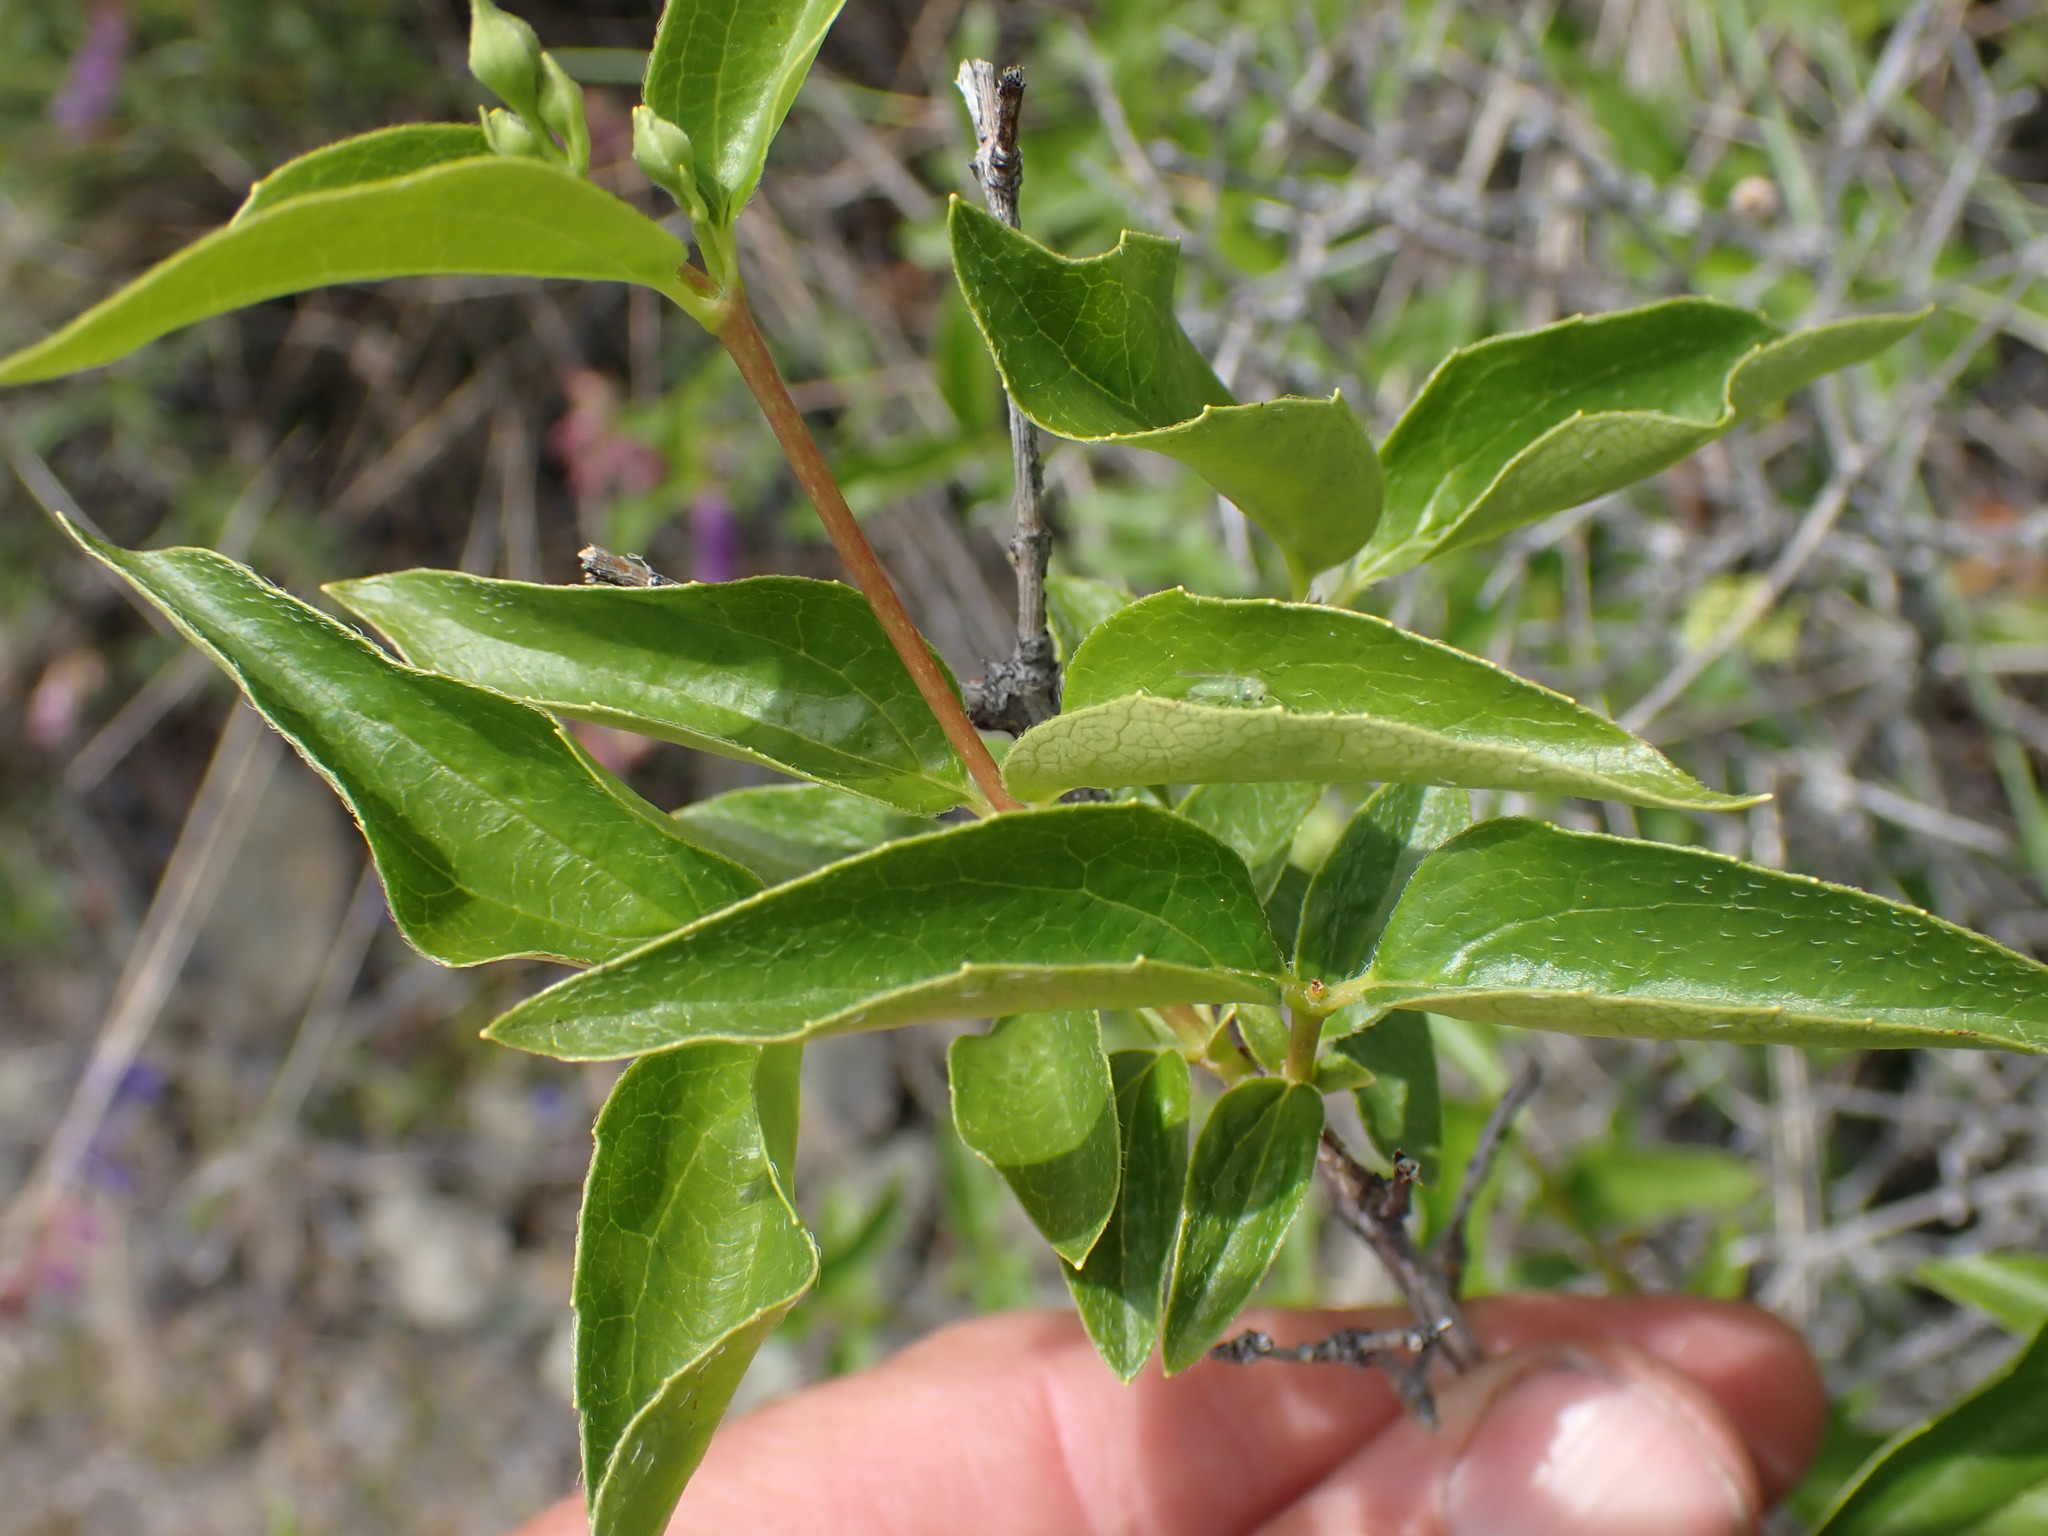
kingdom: Plantae
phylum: Tracheophyta
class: Magnoliopsida
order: Cornales
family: Hydrangeaceae
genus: Philadelphus
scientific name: Philadelphus lewisii
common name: Lewis's mock orange
